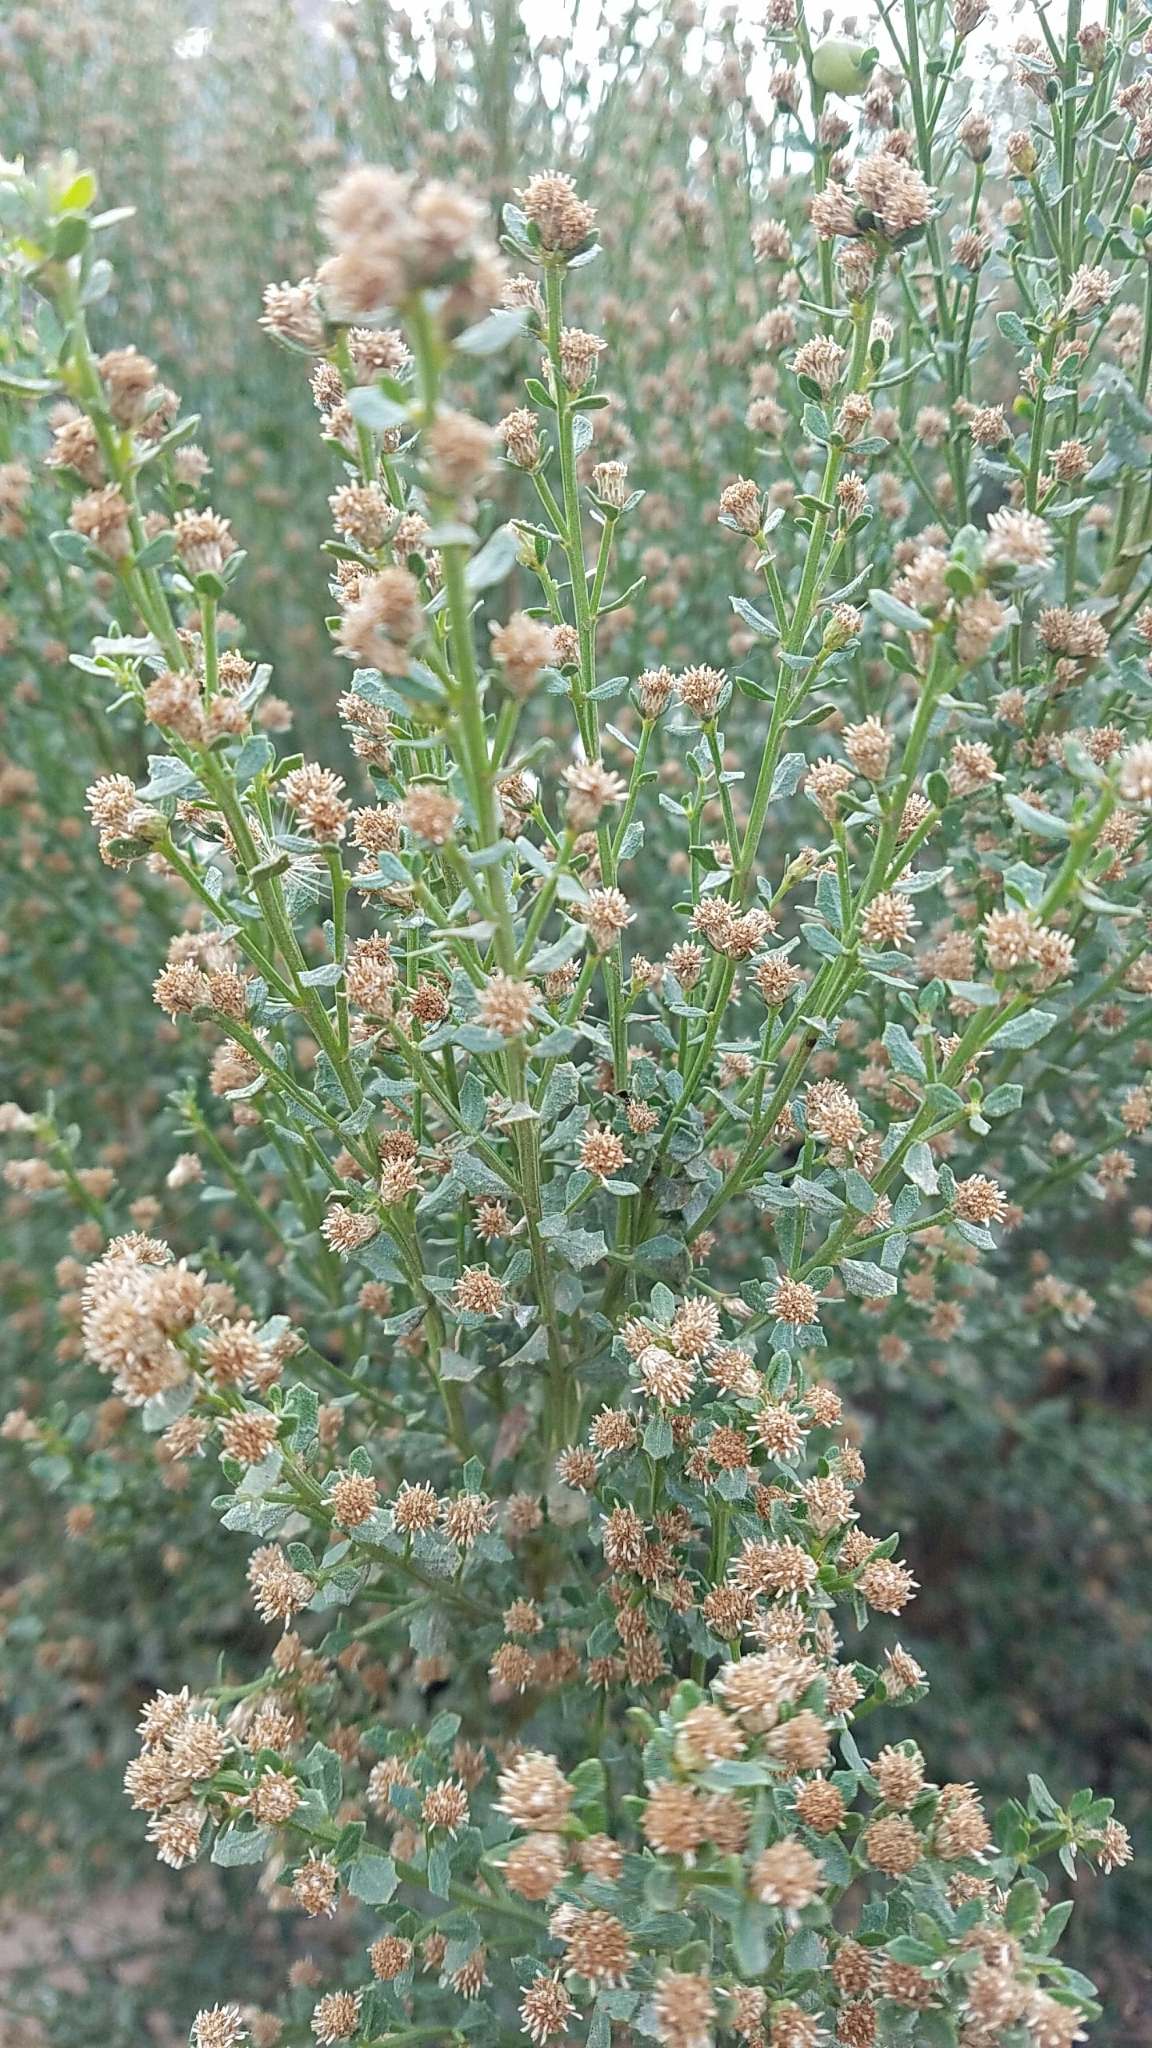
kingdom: Plantae
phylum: Tracheophyta
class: Magnoliopsida
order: Asterales
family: Asteraceae
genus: Baccharis
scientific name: Baccharis pilularis
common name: Coyotebrush
